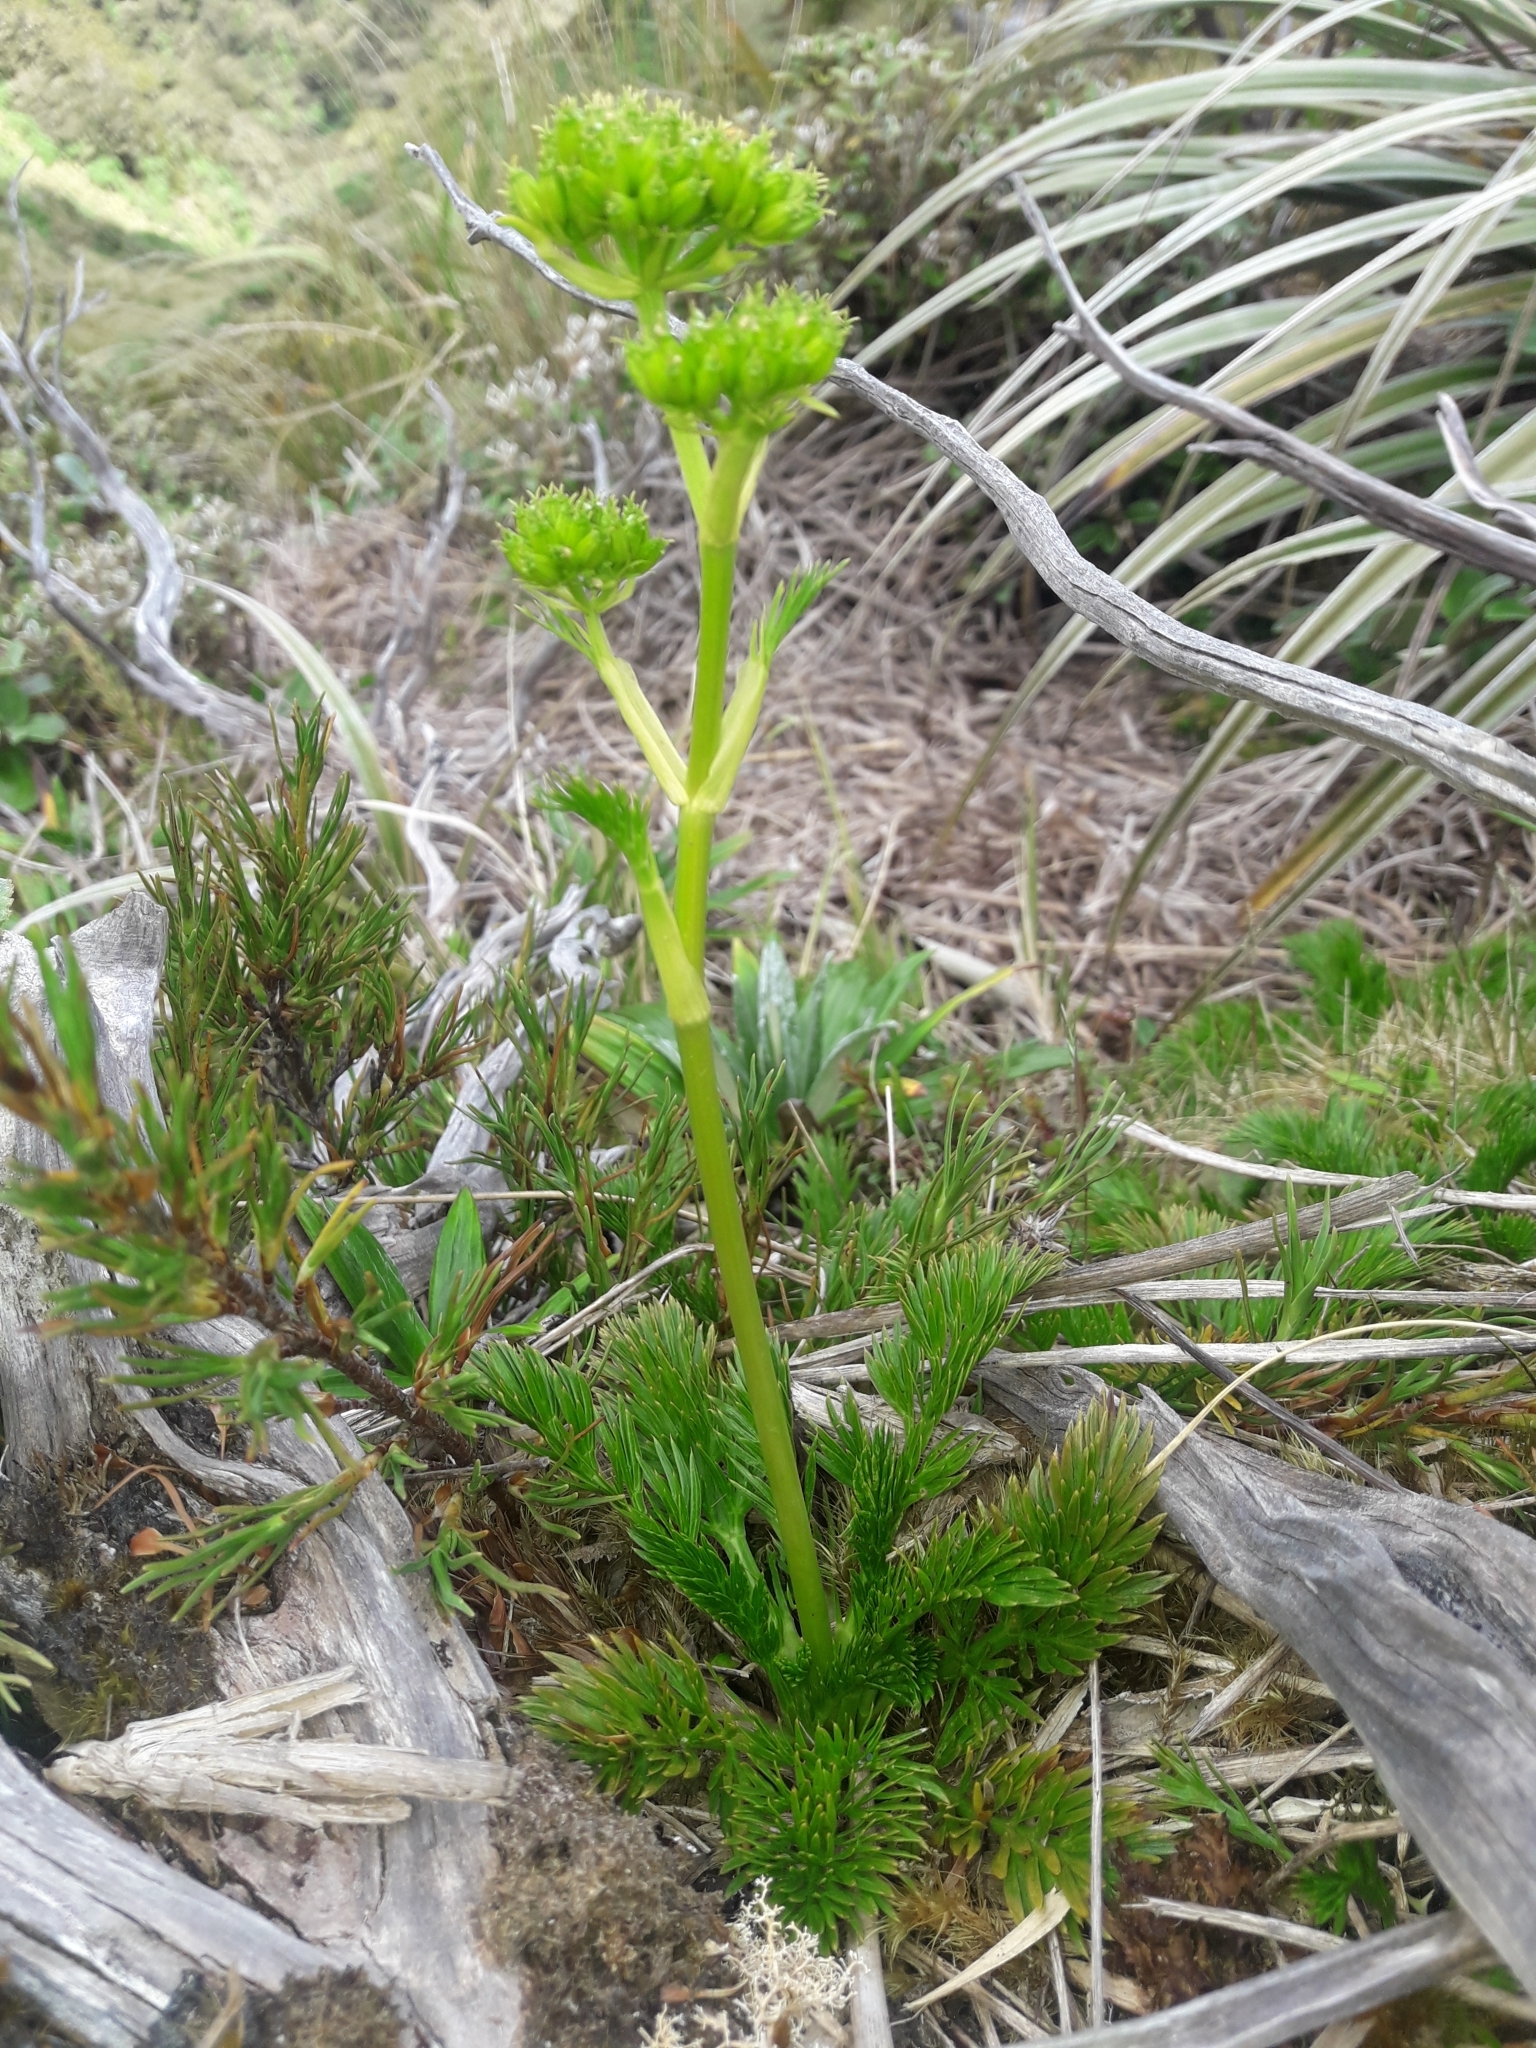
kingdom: Plantae
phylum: Tracheophyta
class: Magnoliopsida
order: Apiales
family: Apiaceae
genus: Aciphylla
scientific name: Aciphylla dissecta
